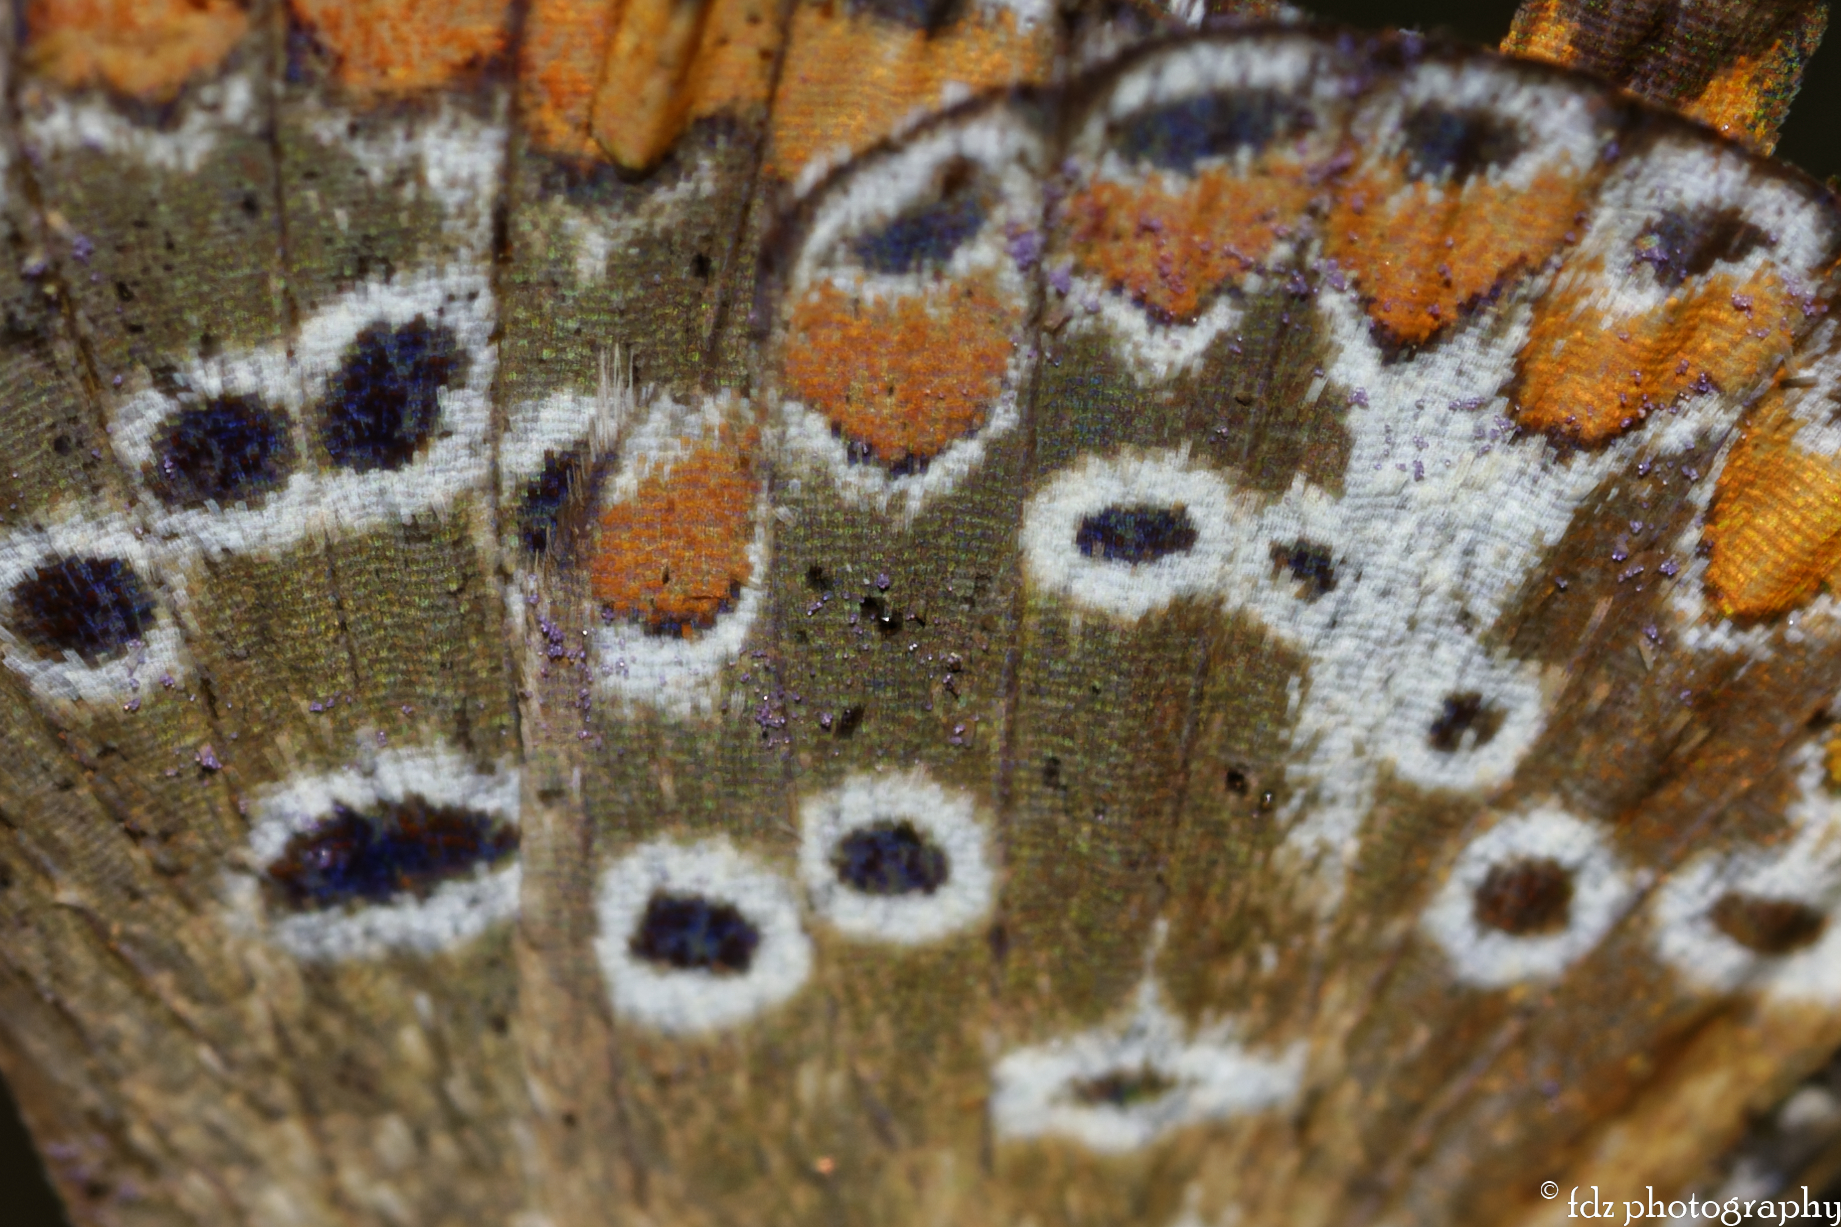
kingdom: Animalia
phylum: Arthropoda
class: Insecta
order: Lepidoptera
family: Lycaenidae
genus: Aricia
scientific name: Aricia cramera
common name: Eschscholtz´s brown  argus
